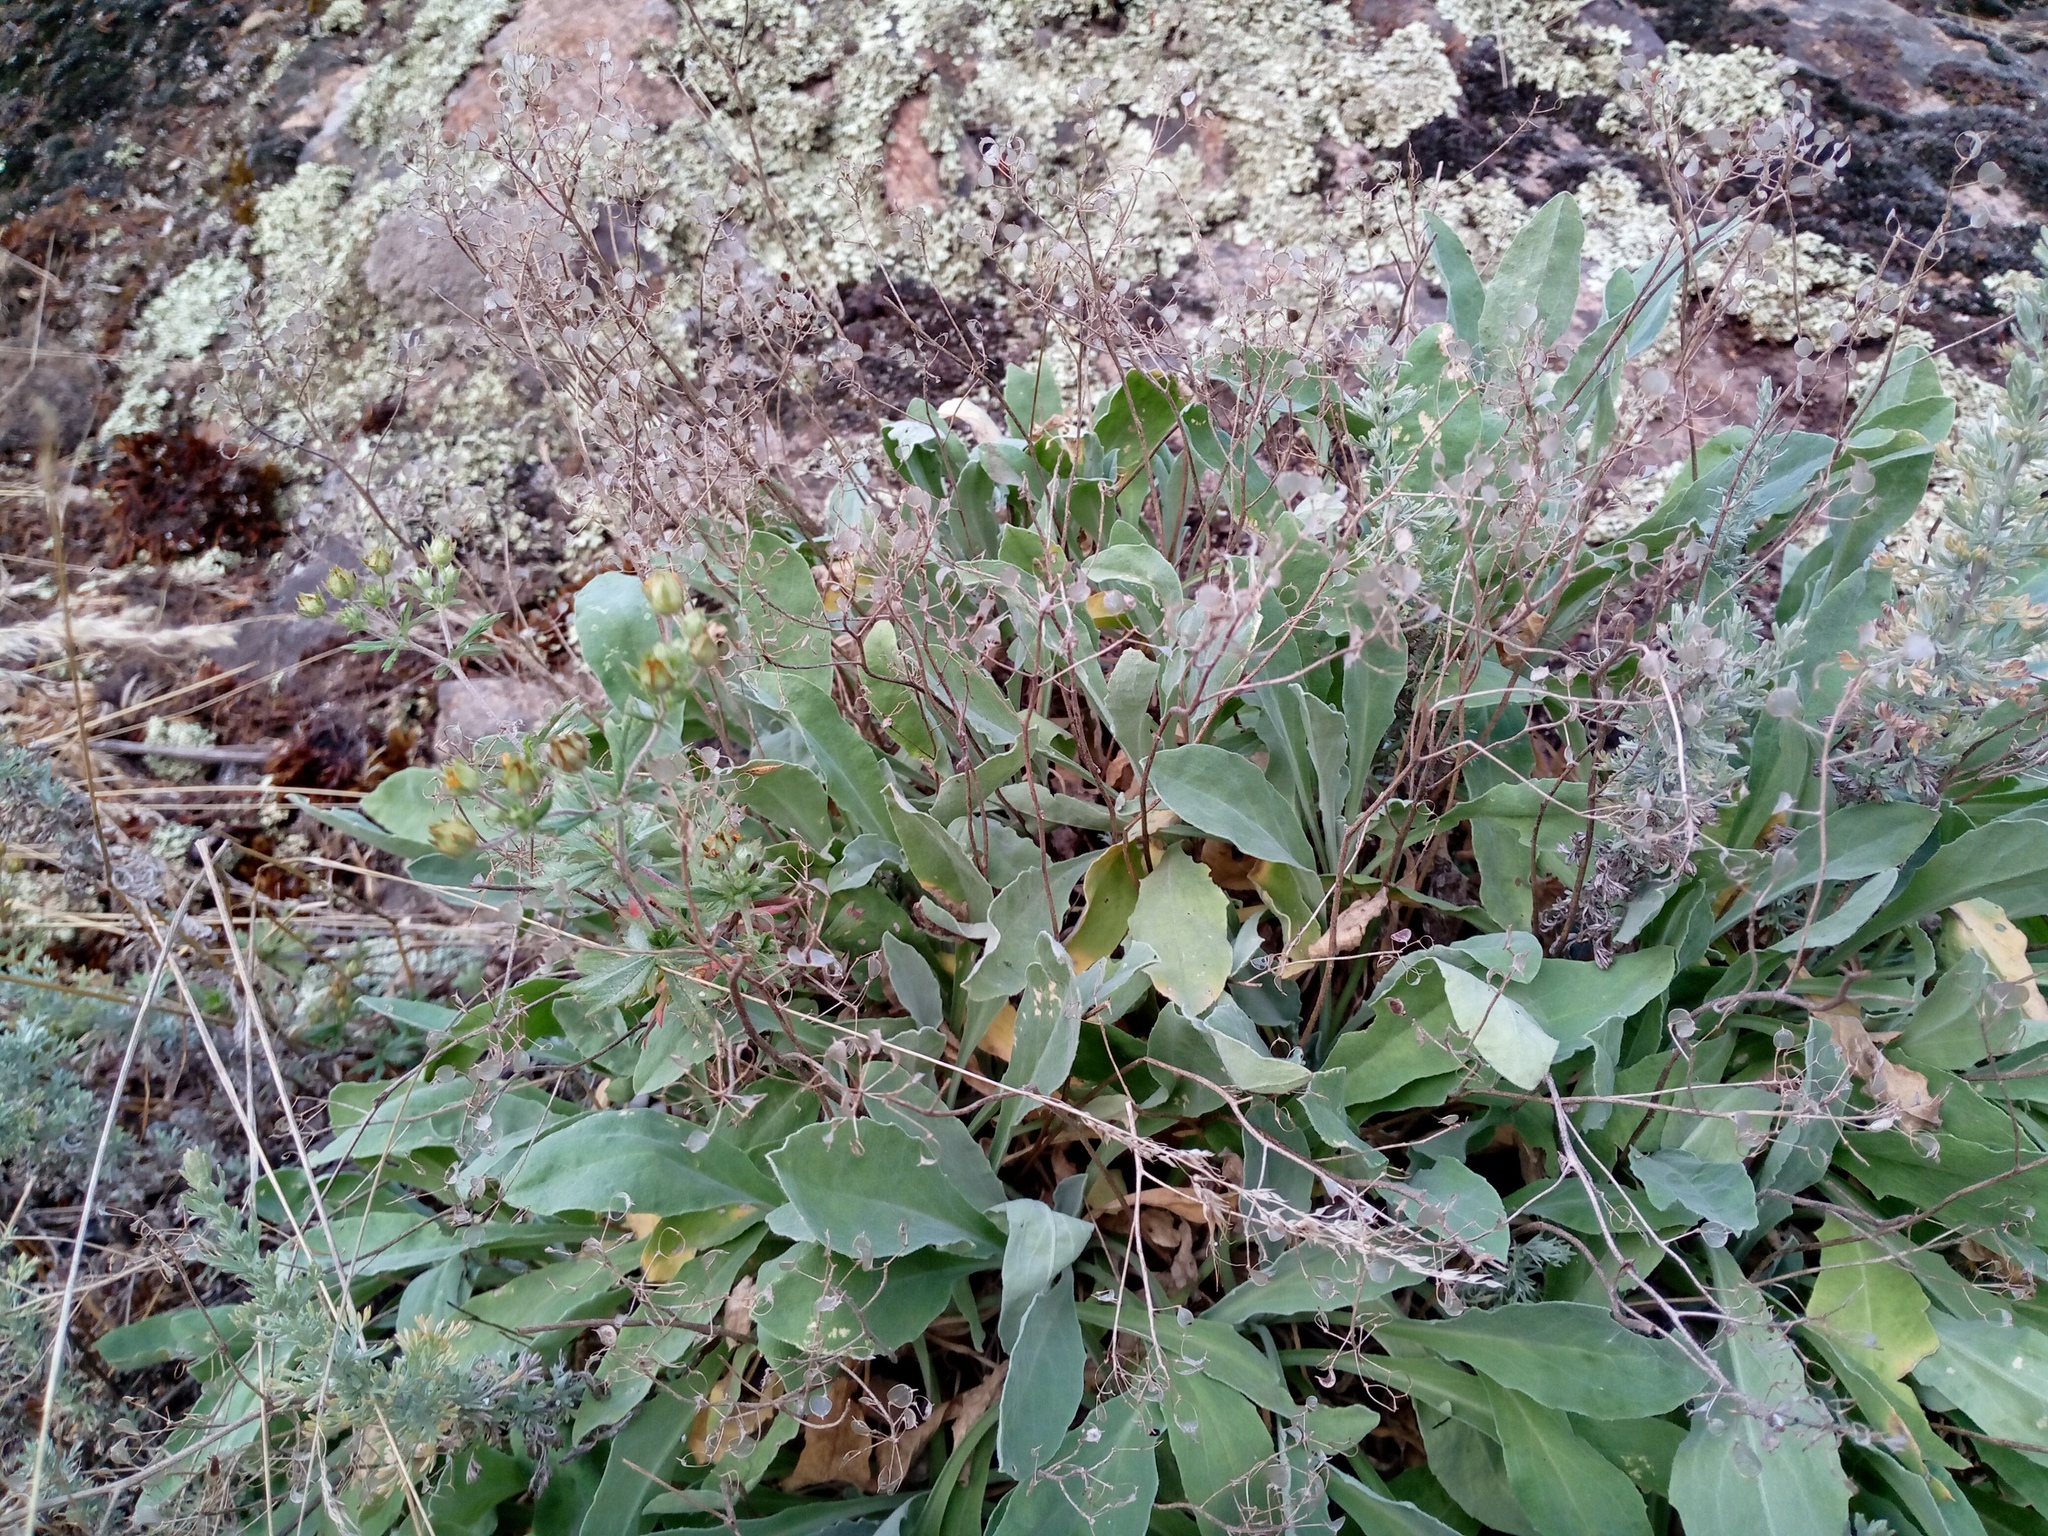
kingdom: Plantae
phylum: Tracheophyta
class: Magnoliopsida
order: Brassicales
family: Brassicaceae
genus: Aurinia
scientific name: Aurinia saxatilis
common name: Golden-tuft alyssum
